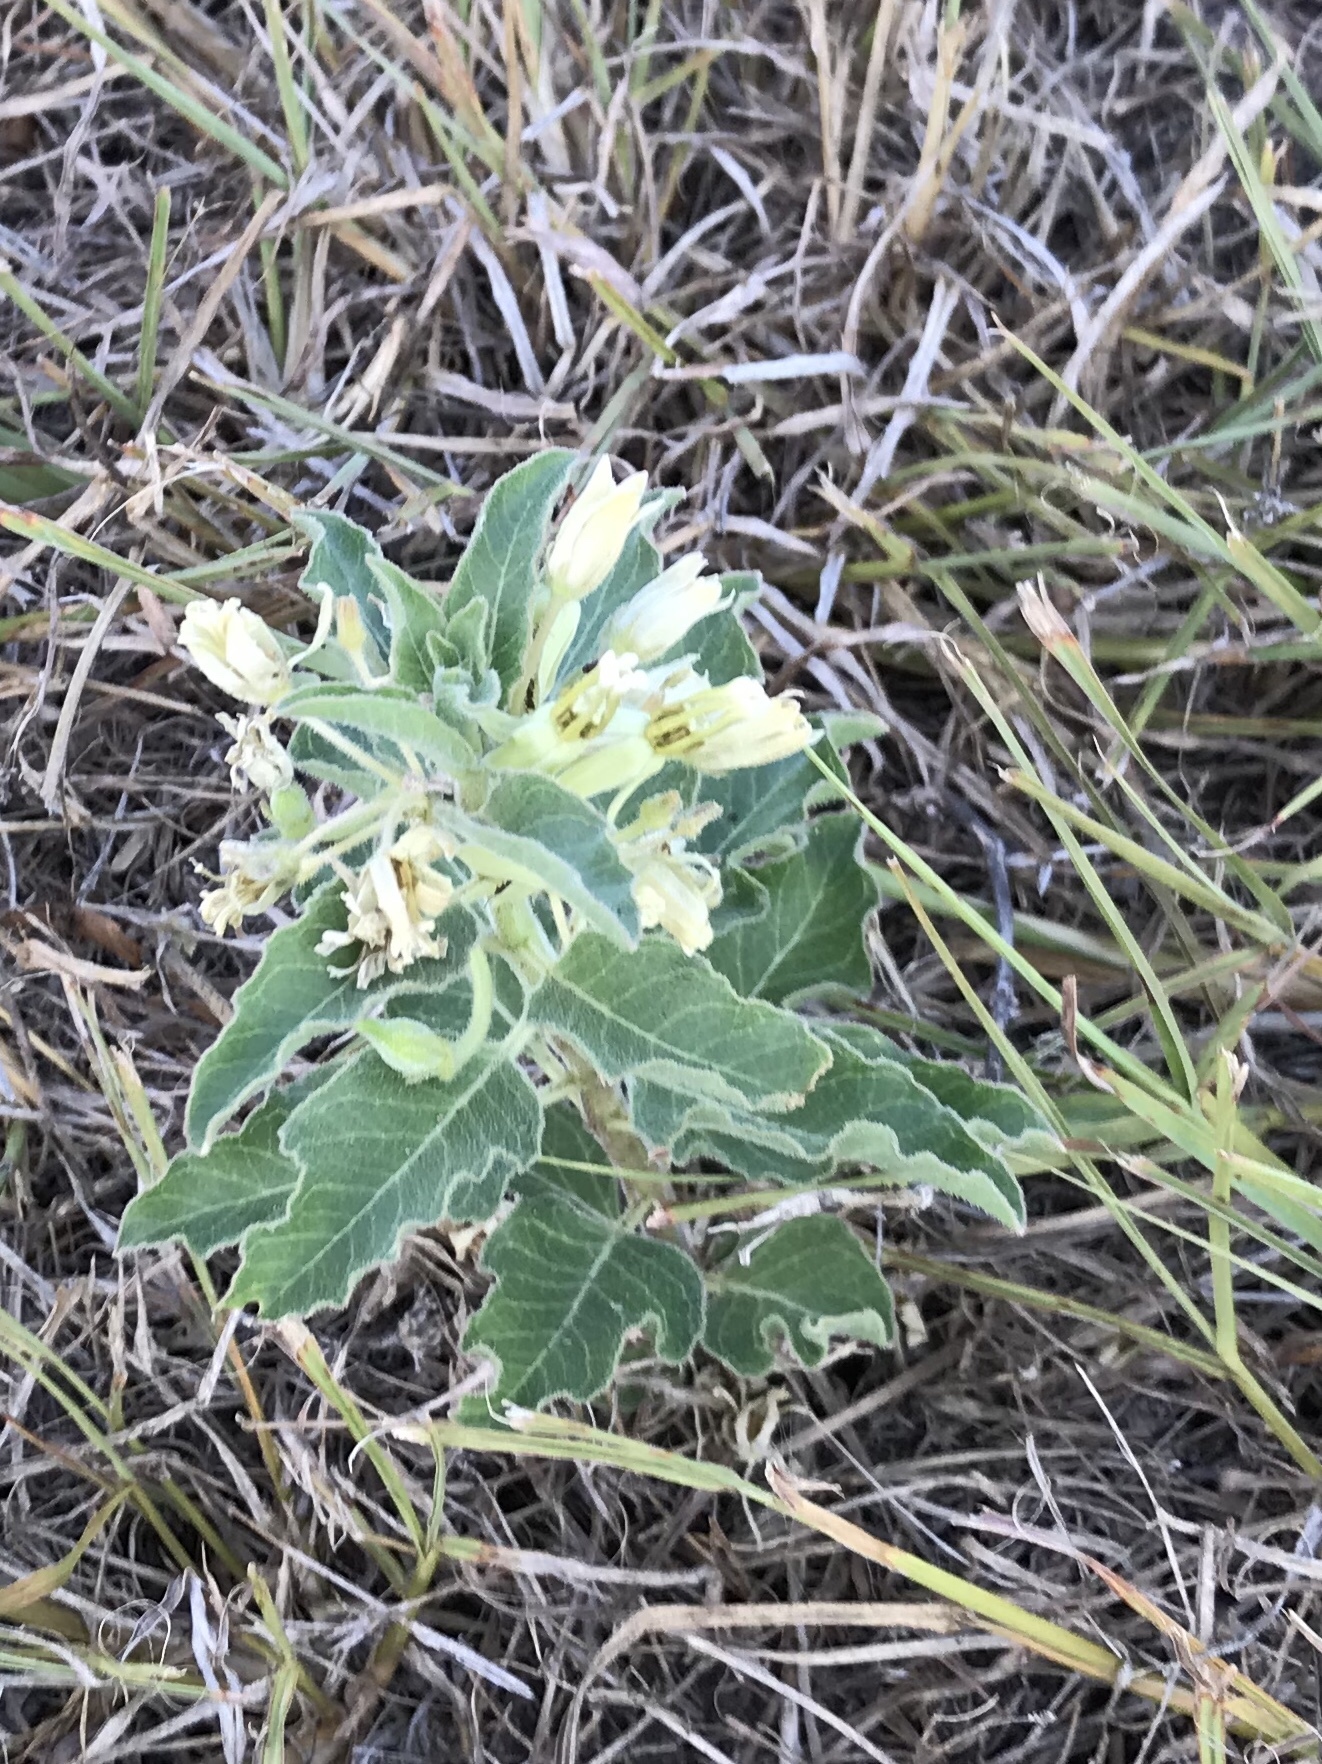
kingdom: Plantae
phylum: Tracheophyta
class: Magnoliopsida
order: Gentianales
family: Apocynaceae
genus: Asclepias
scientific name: Asclepias oenotheroides
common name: Zizotes milkweed
